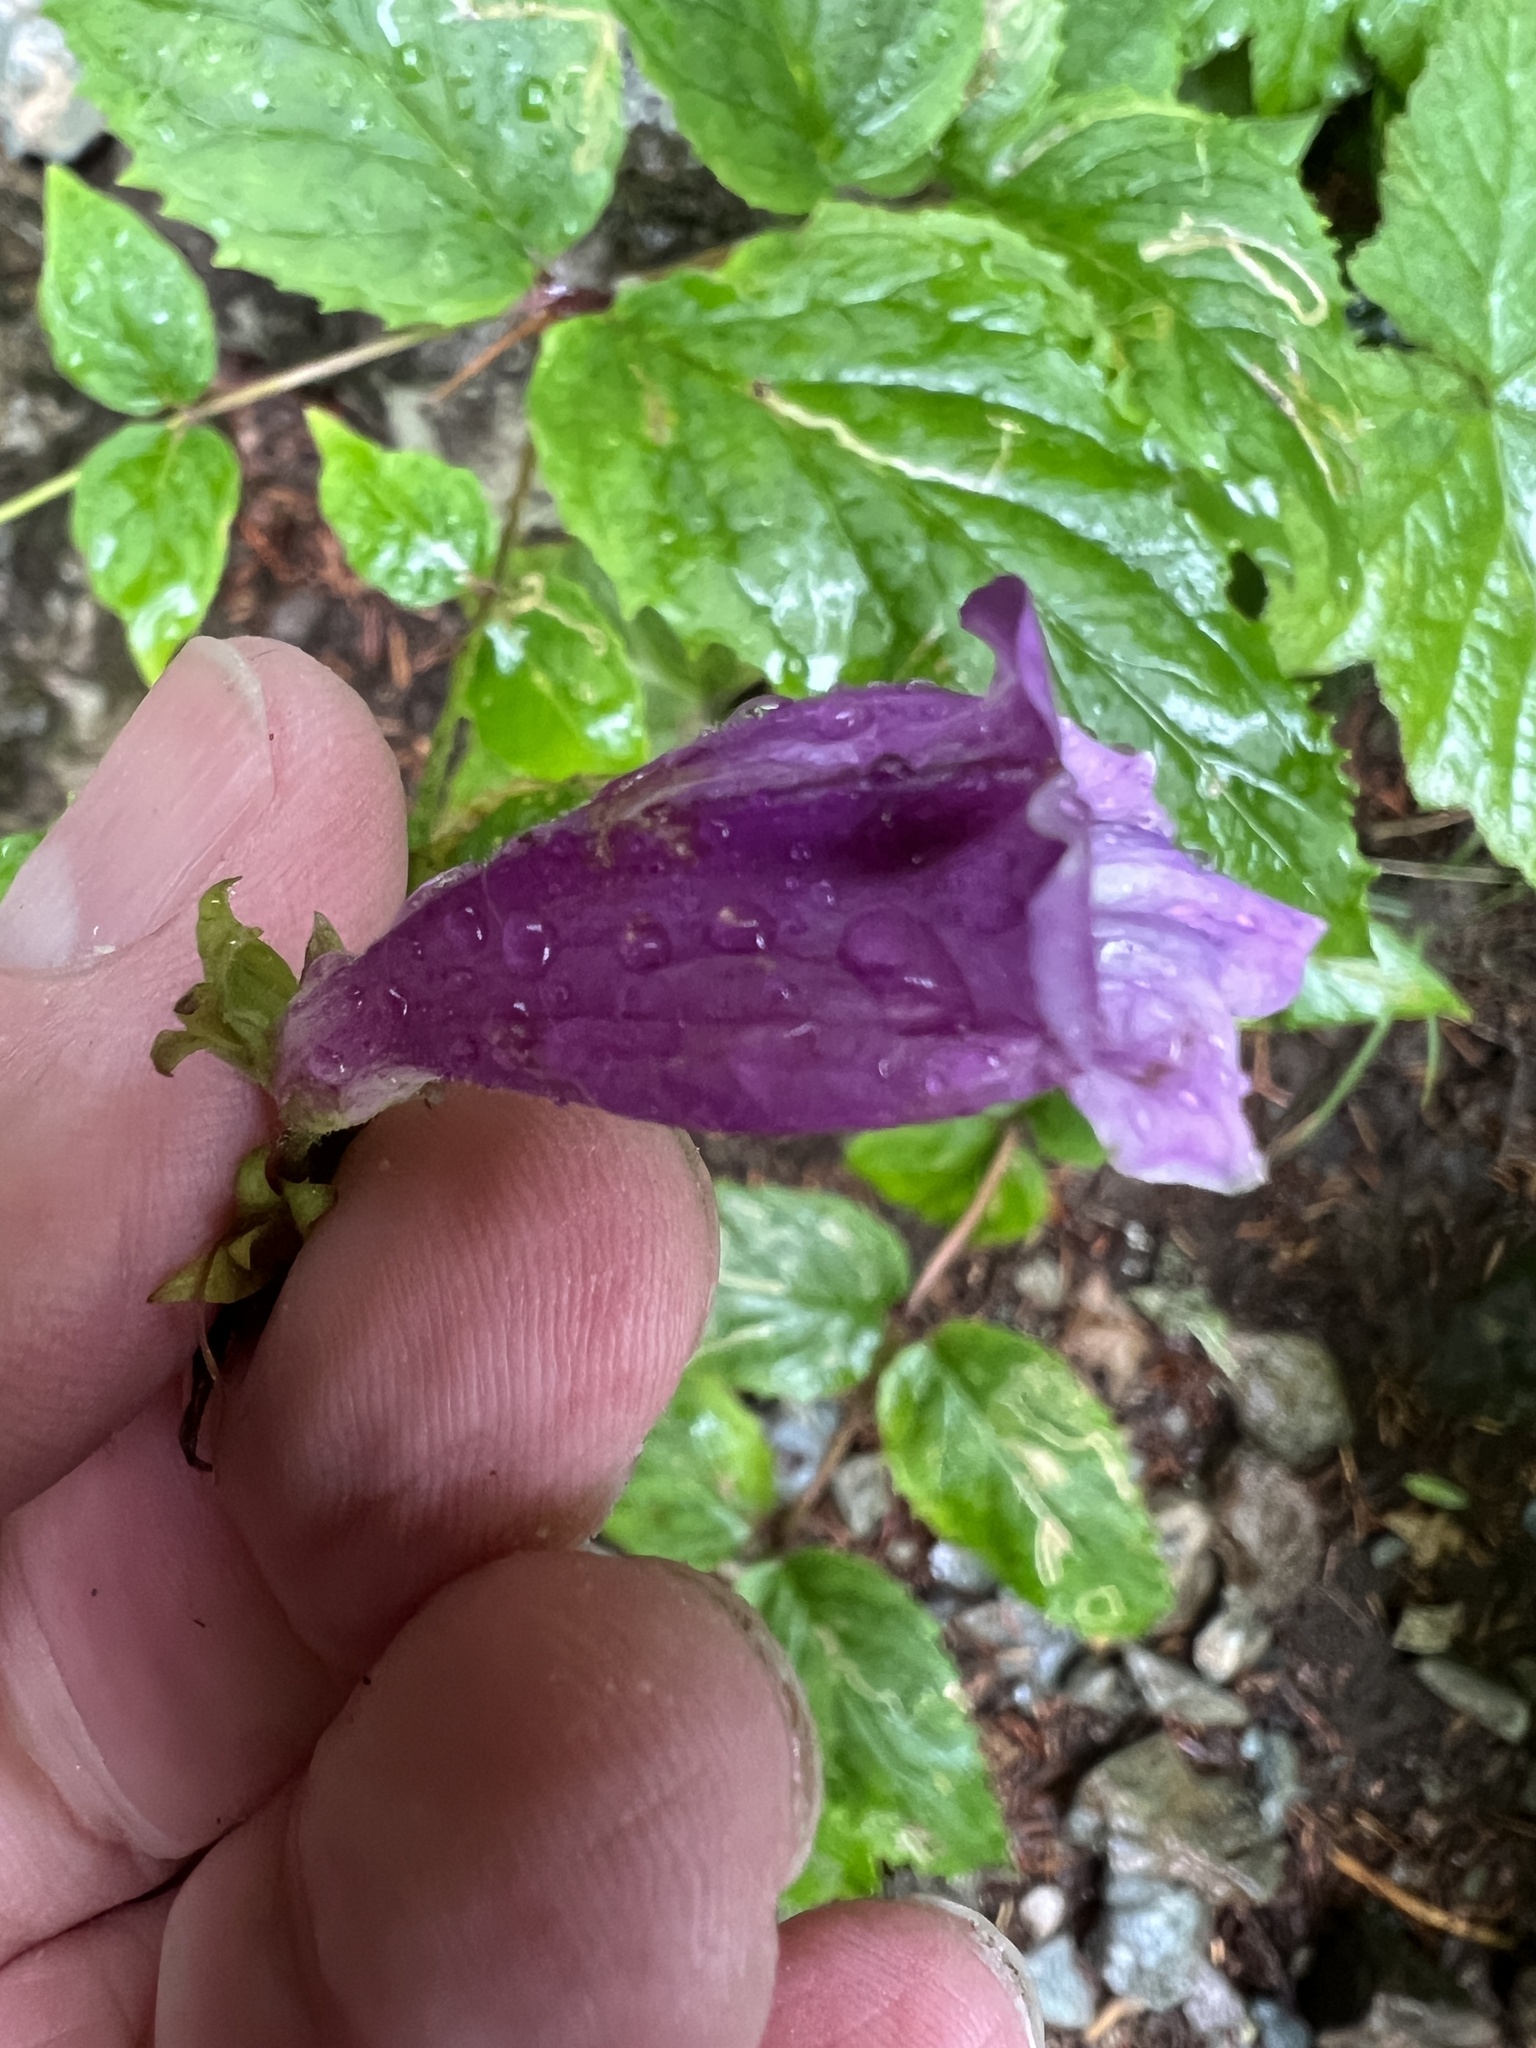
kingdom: Plantae
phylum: Tracheophyta
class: Magnoliopsida
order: Lamiales
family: Plantaginaceae
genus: Nothochelone
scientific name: Nothochelone nemorosa
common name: Woodland beardtongue
